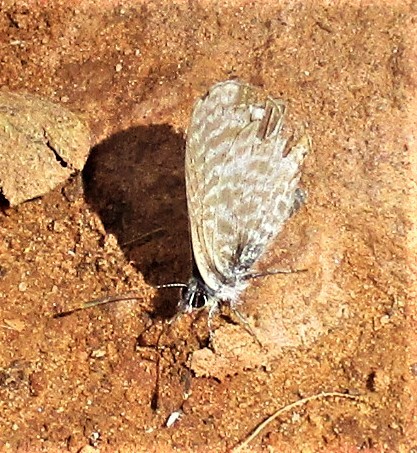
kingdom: Animalia
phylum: Arthropoda
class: Insecta
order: Lepidoptera
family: Lycaenidae
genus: Leptotes
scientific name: Leptotes marina
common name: Marine blue
